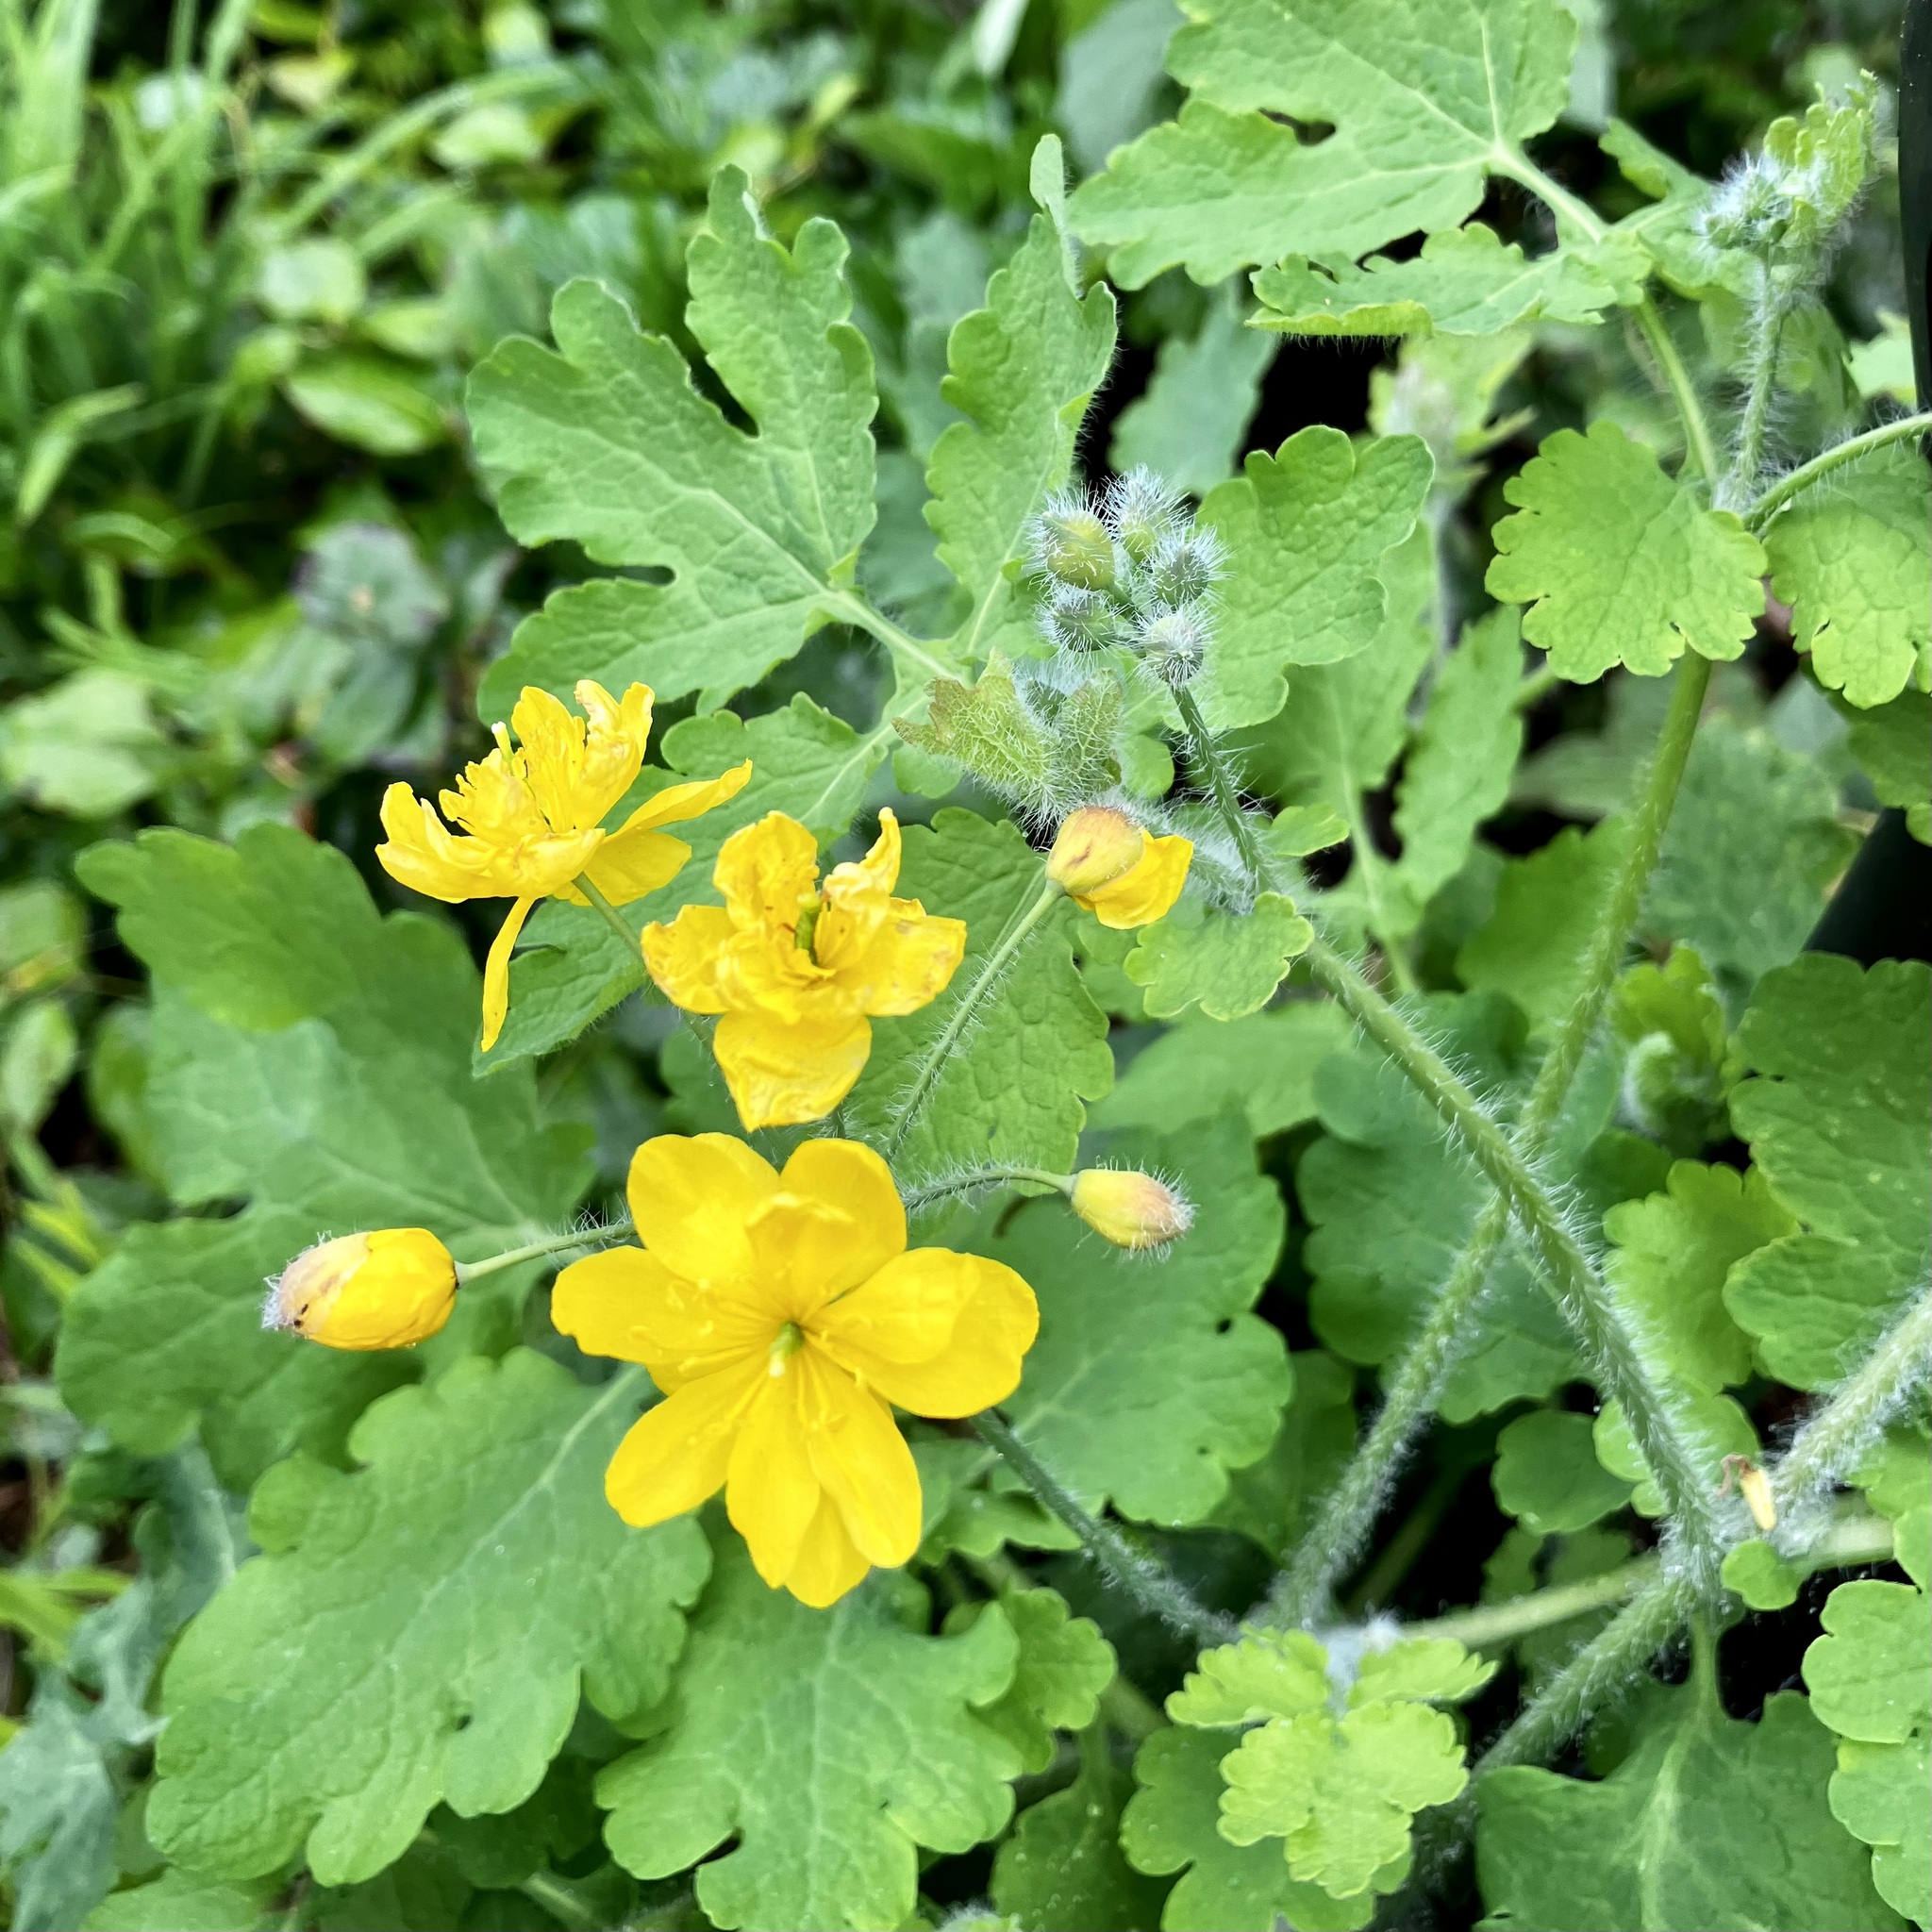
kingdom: Plantae
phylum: Tracheophyta
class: Magnoliopsida
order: Ranunculales
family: Papaveraceae
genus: Chelidonium
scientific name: Chelidonium majus
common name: Greater celandine
